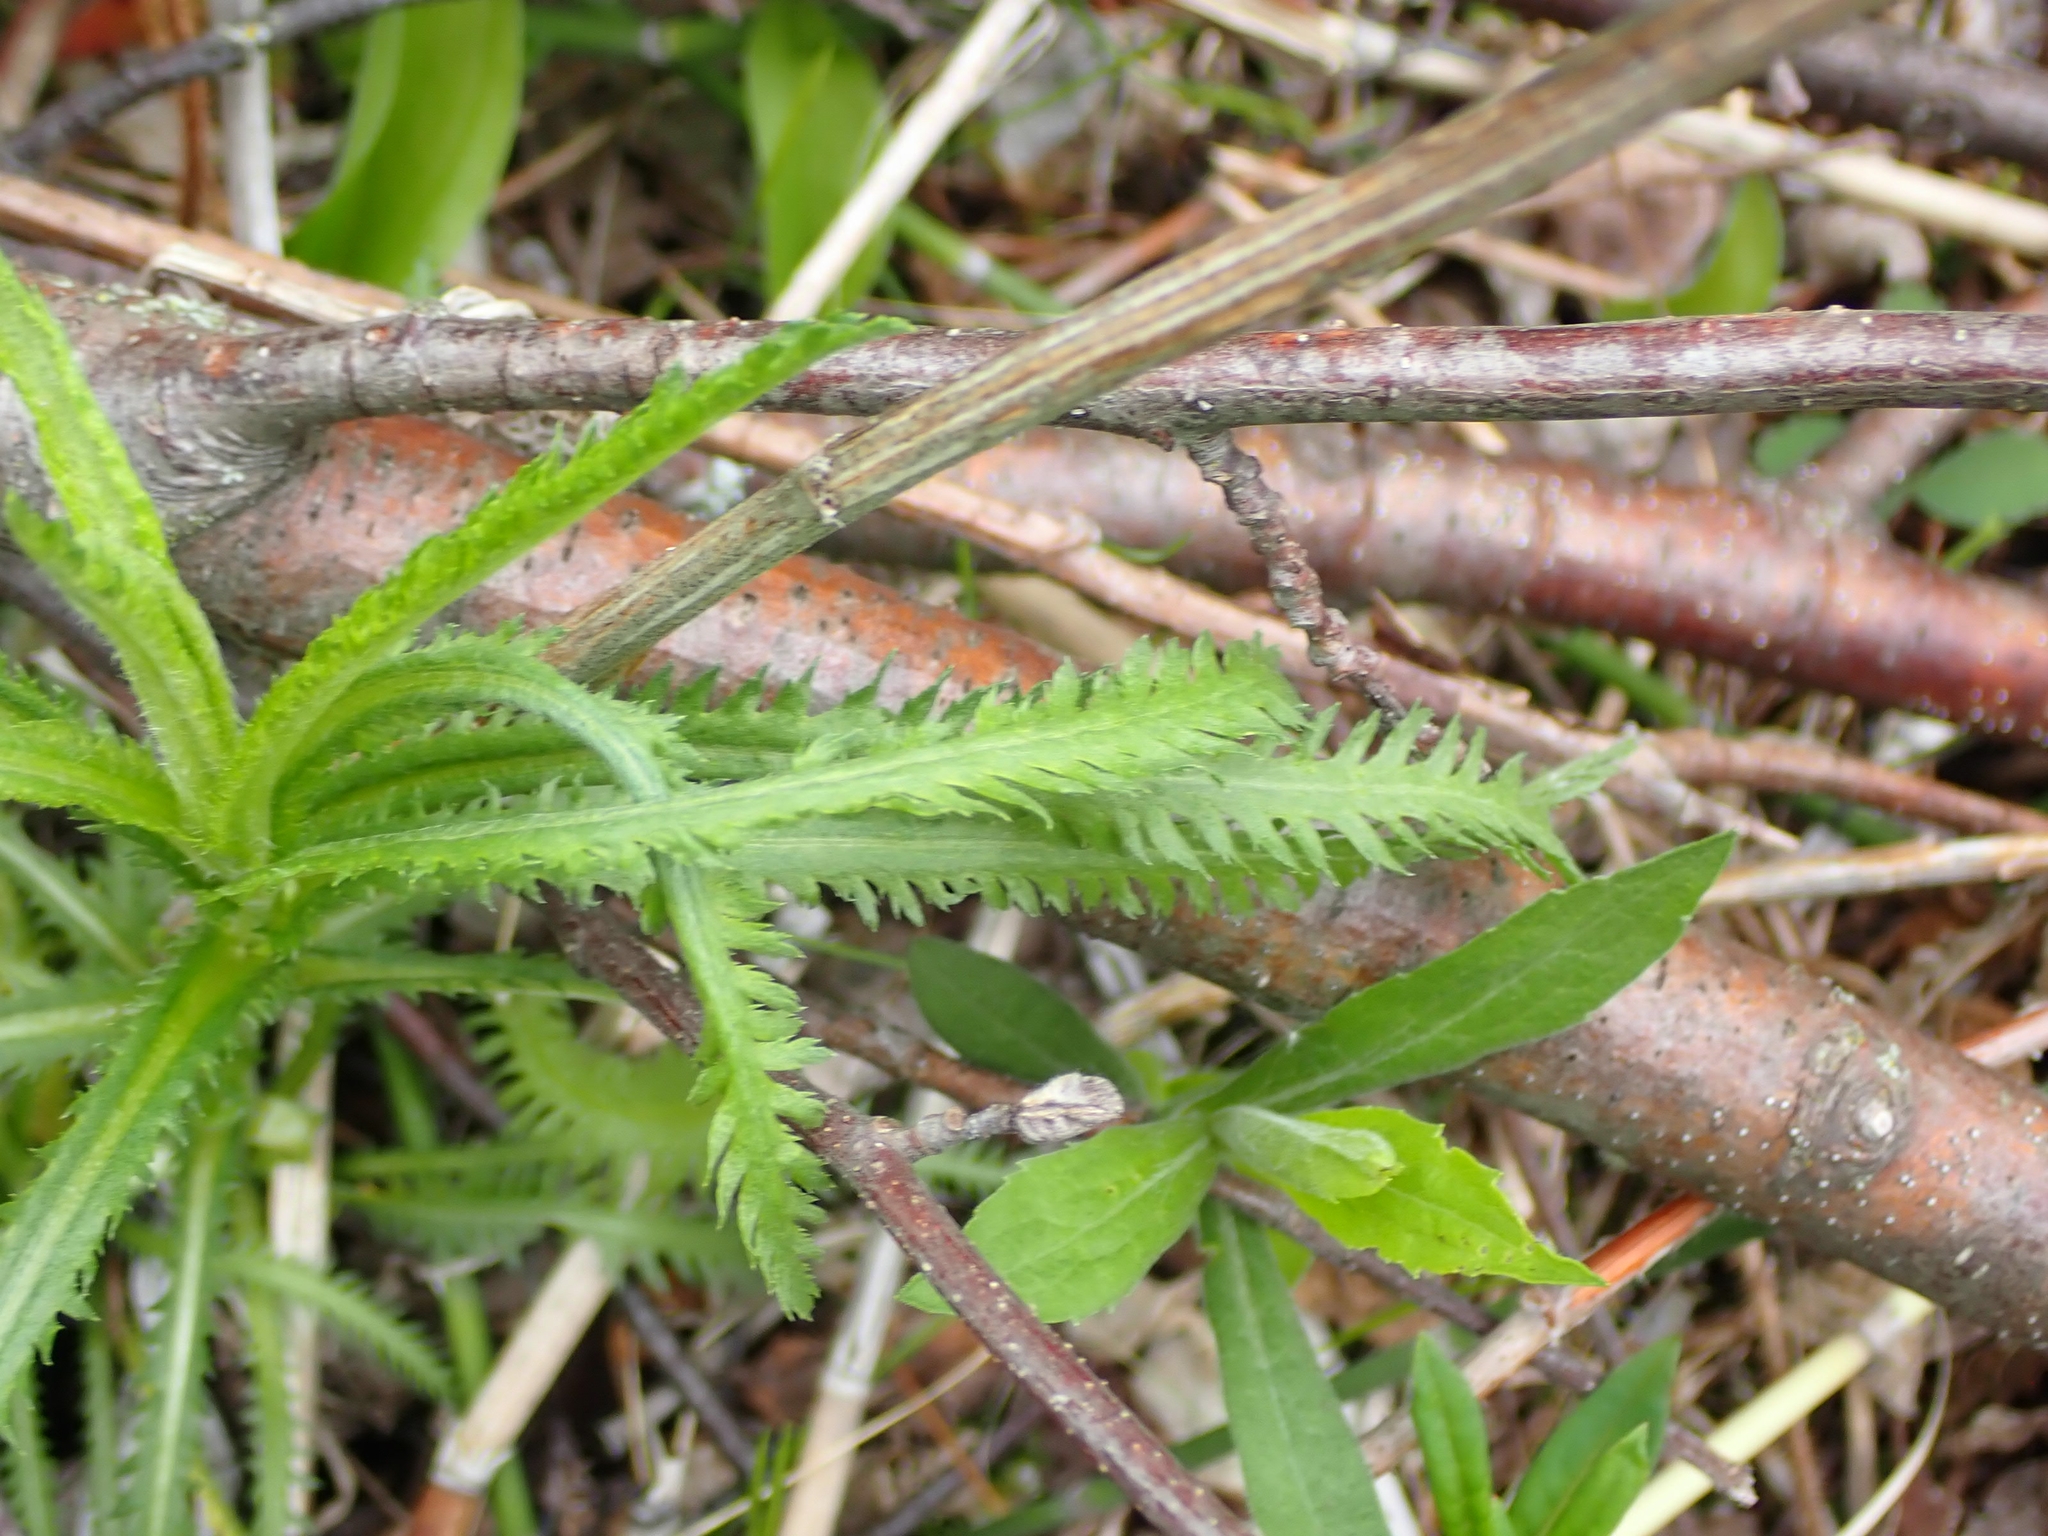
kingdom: Plantae
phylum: Tracheophyta
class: Magnoliopsida
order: Asterales
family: Asteraceae
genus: Achillea
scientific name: Achillea alpina
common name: Siberian yarrow
